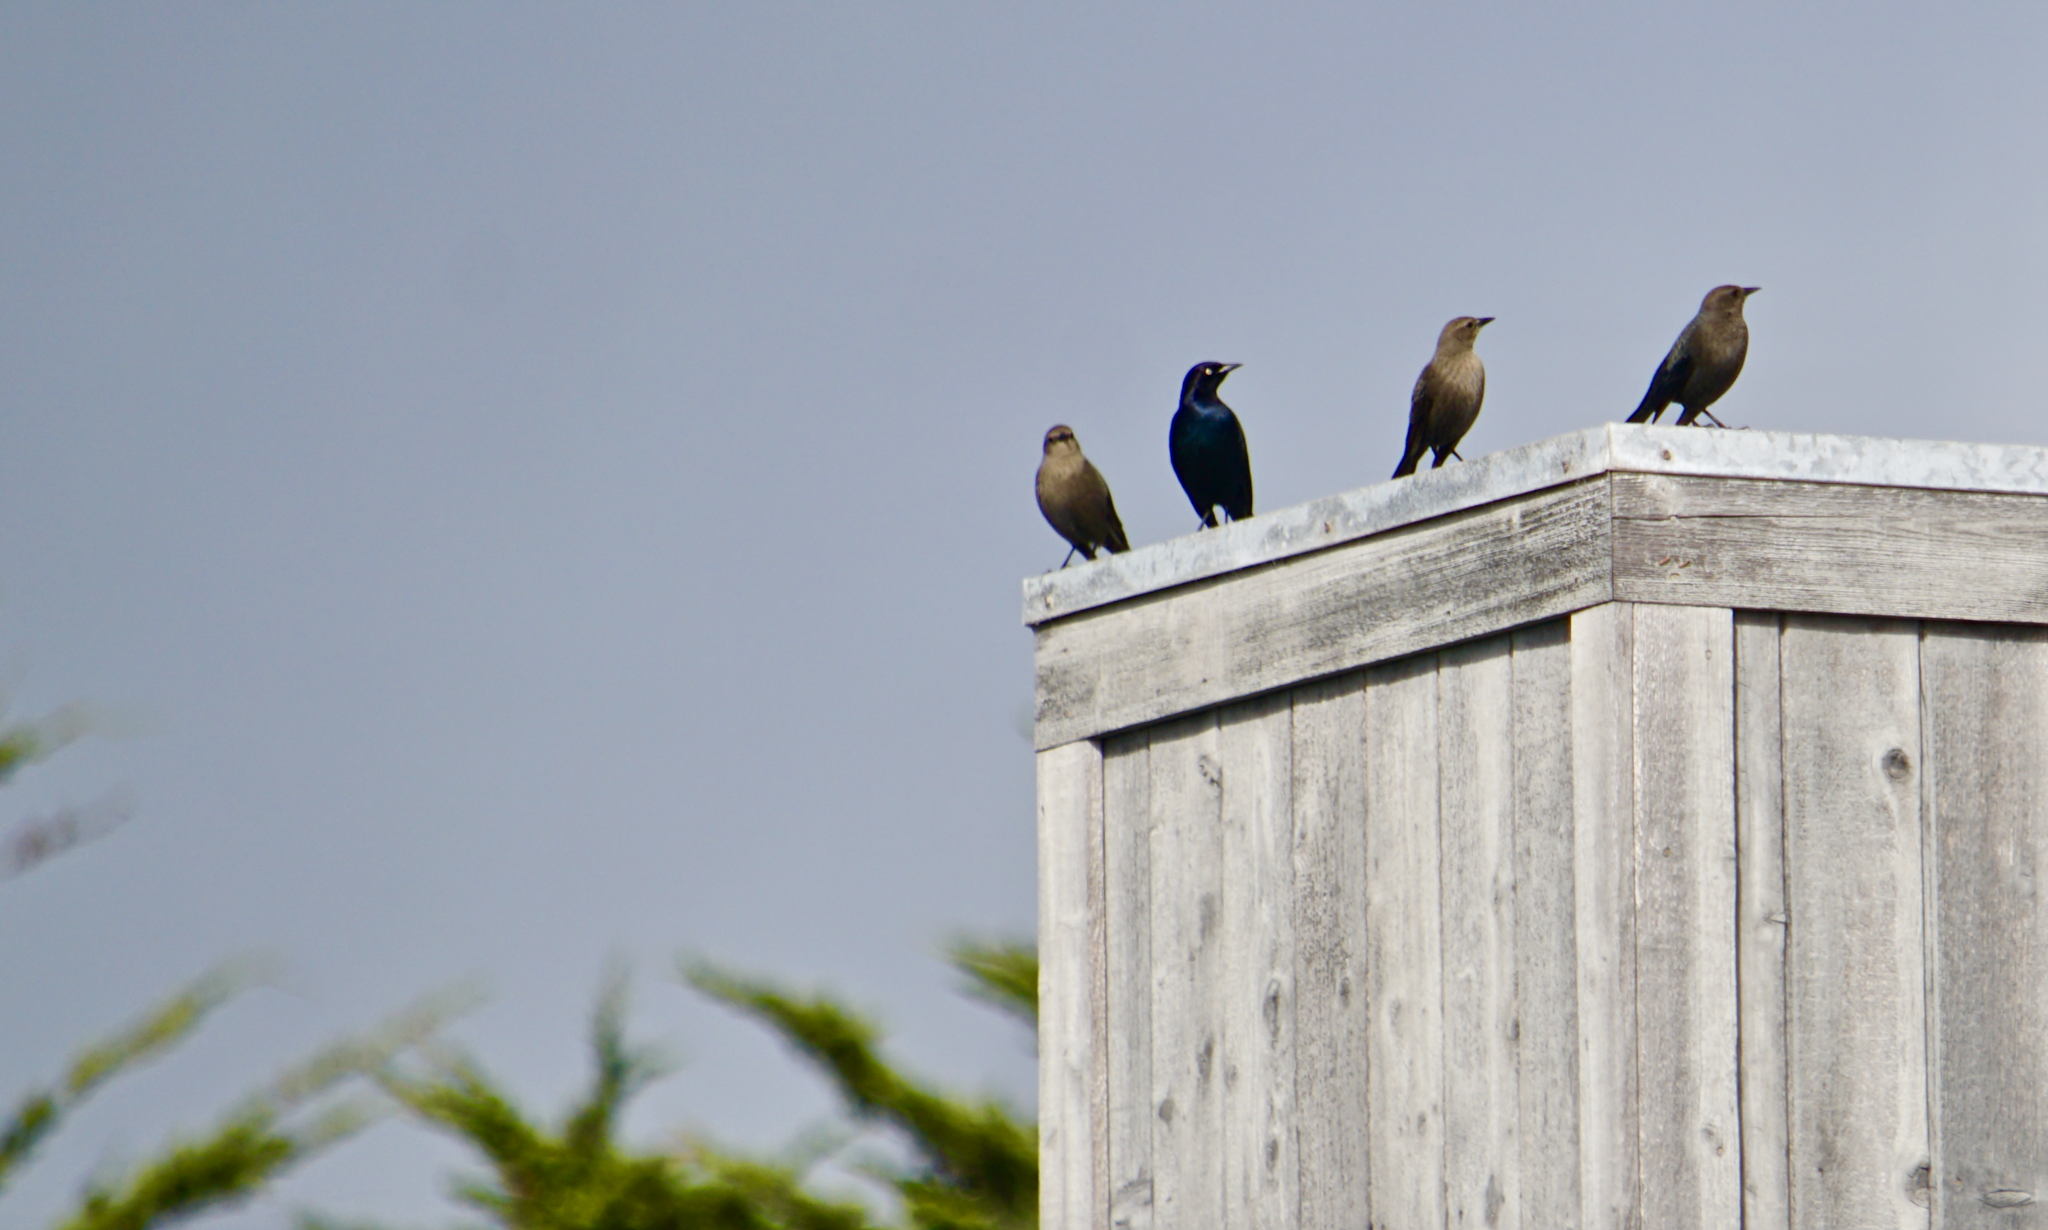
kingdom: Animalia
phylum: Chordata
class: Aves
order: Passeriformes
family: Icteridae
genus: Euphagus
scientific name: Euphagus cyanocephalus
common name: Brewer's blackbird
